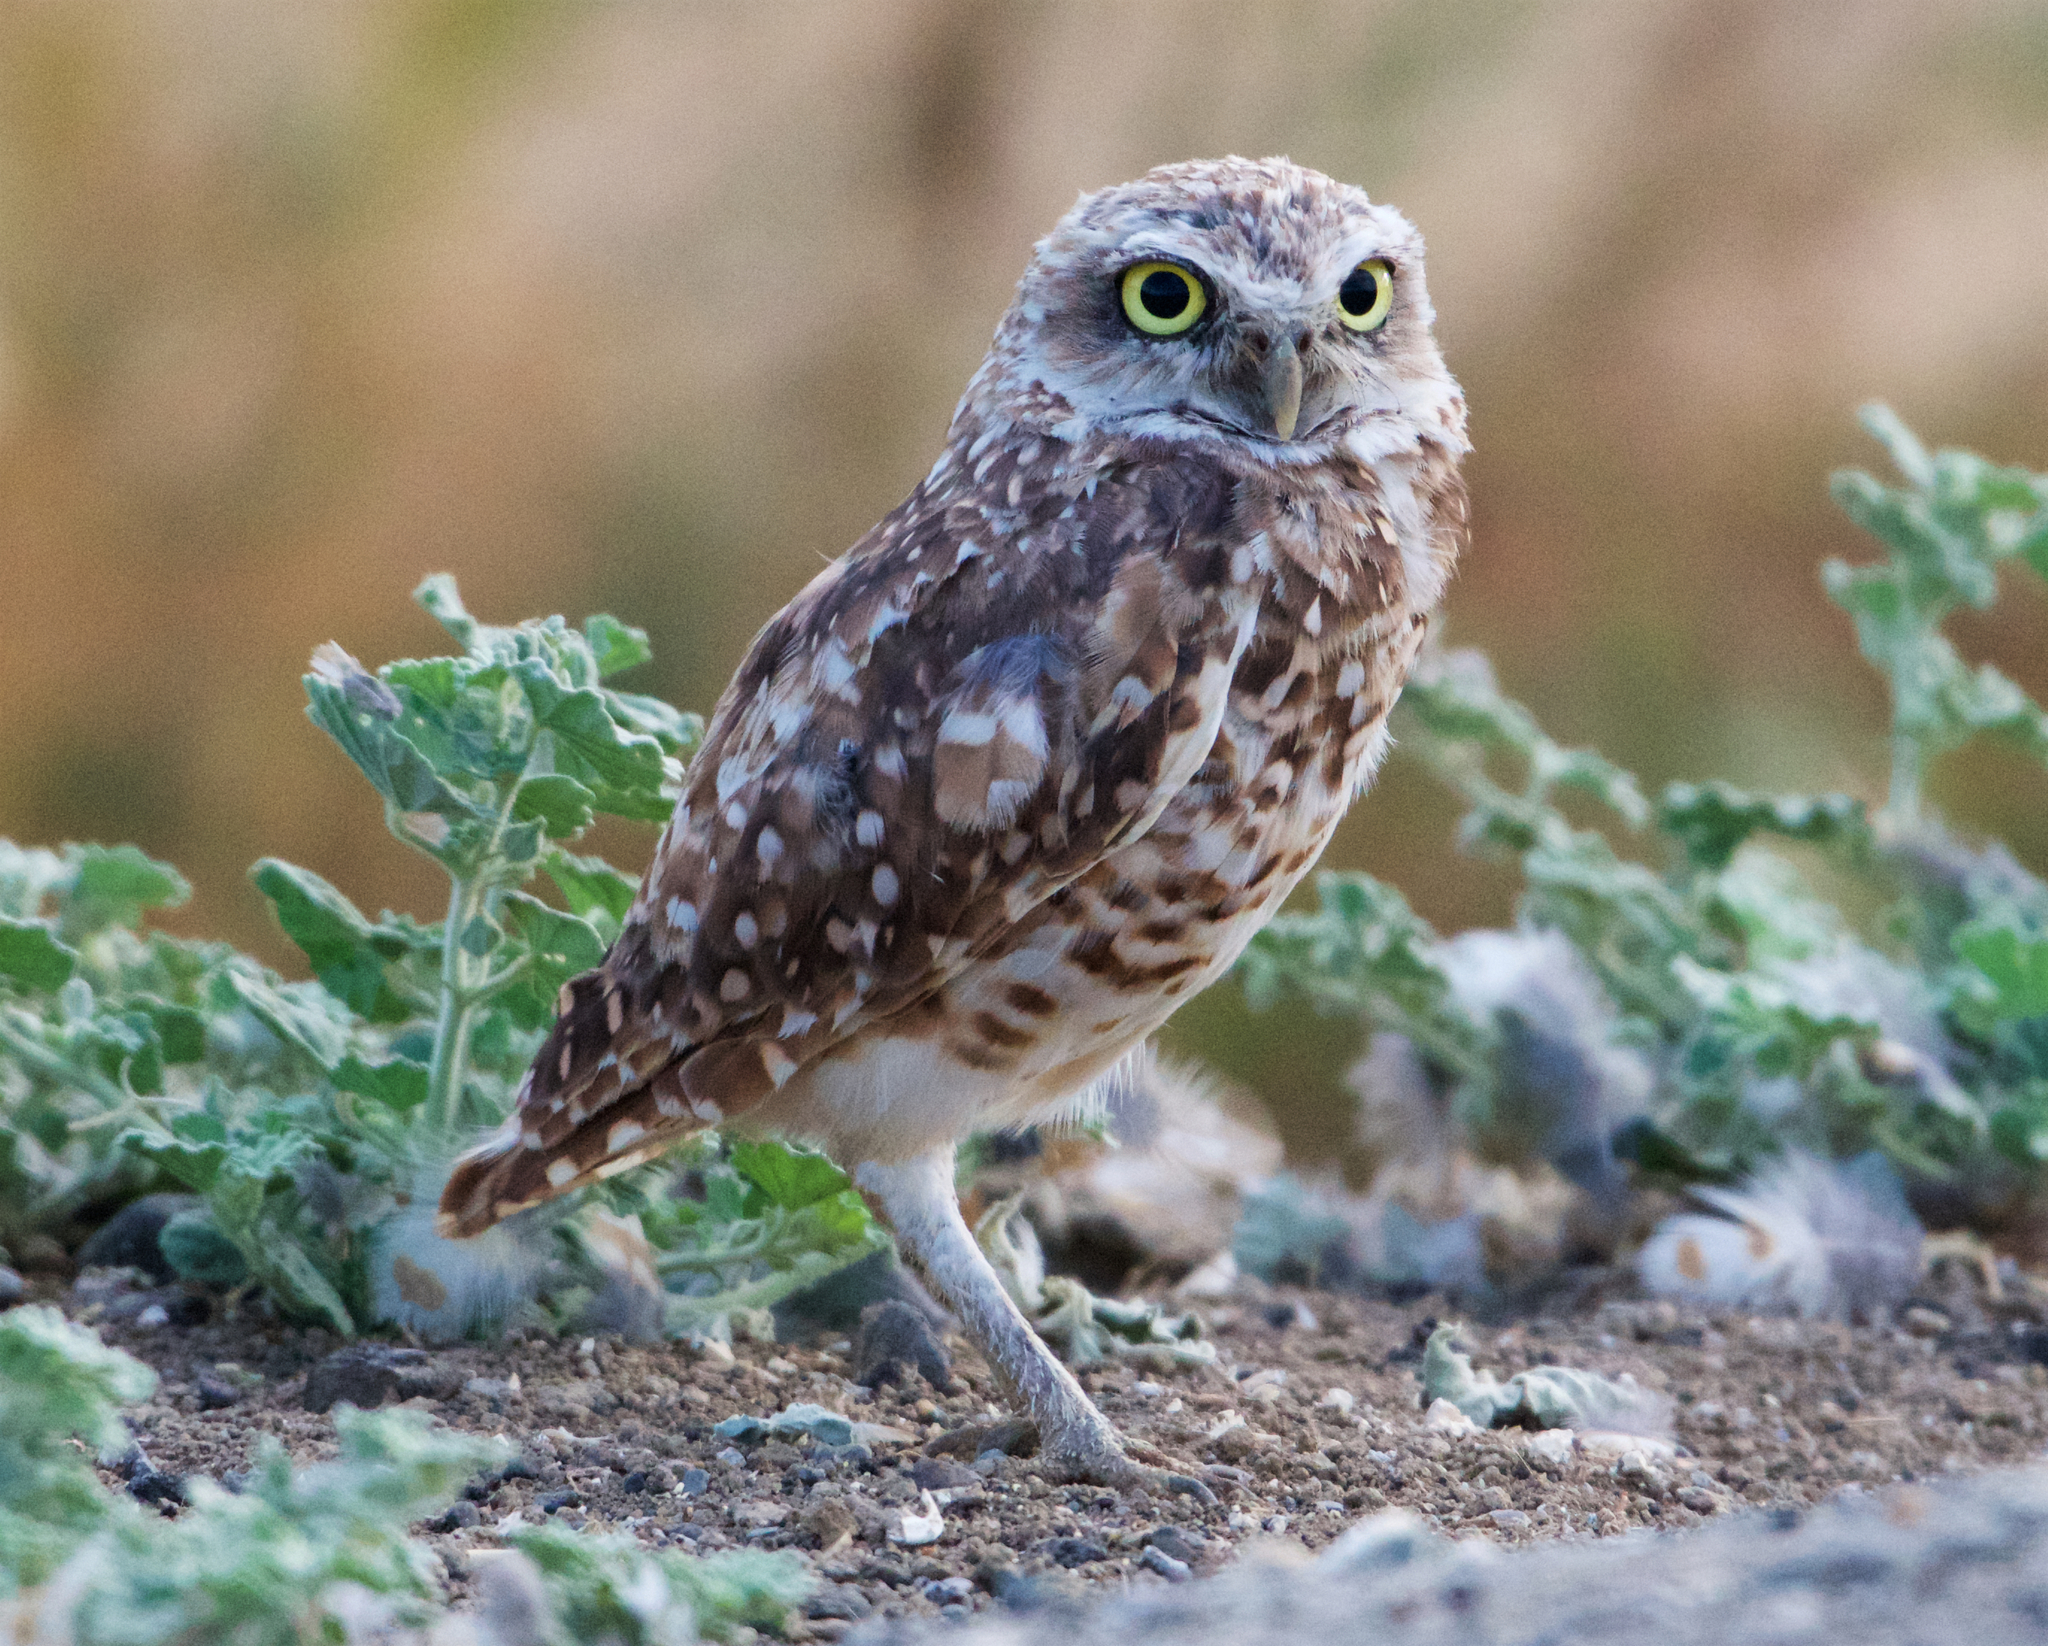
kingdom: Animalia
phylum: Chordata
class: Aves
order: Strigiformes
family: Strigidae
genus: Athene
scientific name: Athene cunicularia
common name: Burrowing owl
